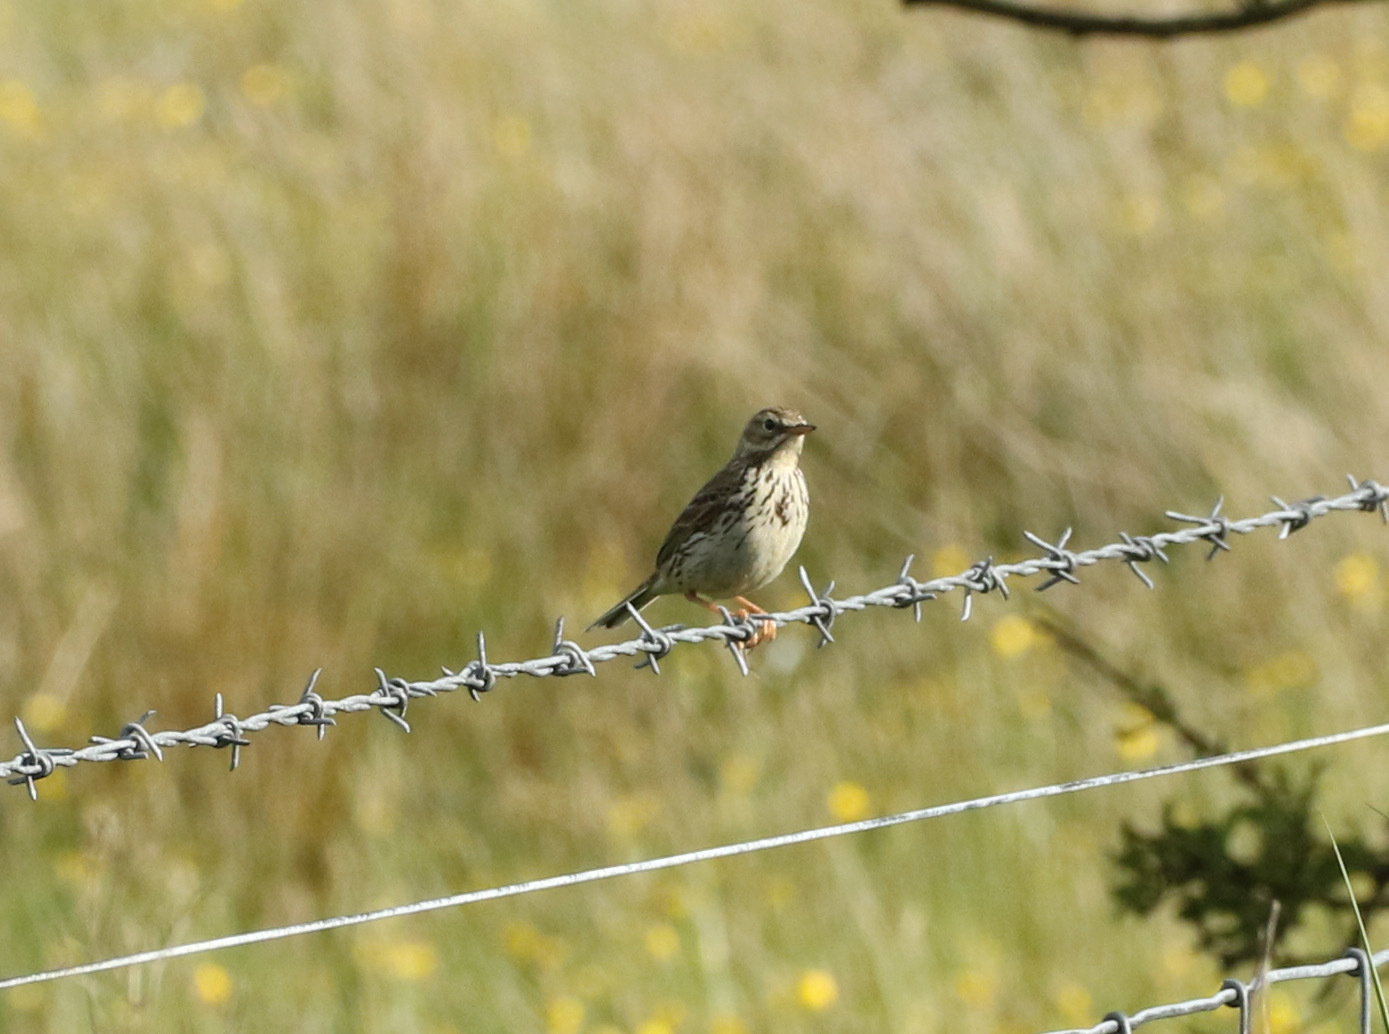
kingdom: Animalia
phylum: Chordata
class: Aves
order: Passeriformes
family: Motacillidae
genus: Anthus
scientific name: Anthus pratensis
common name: Meadow pipit
